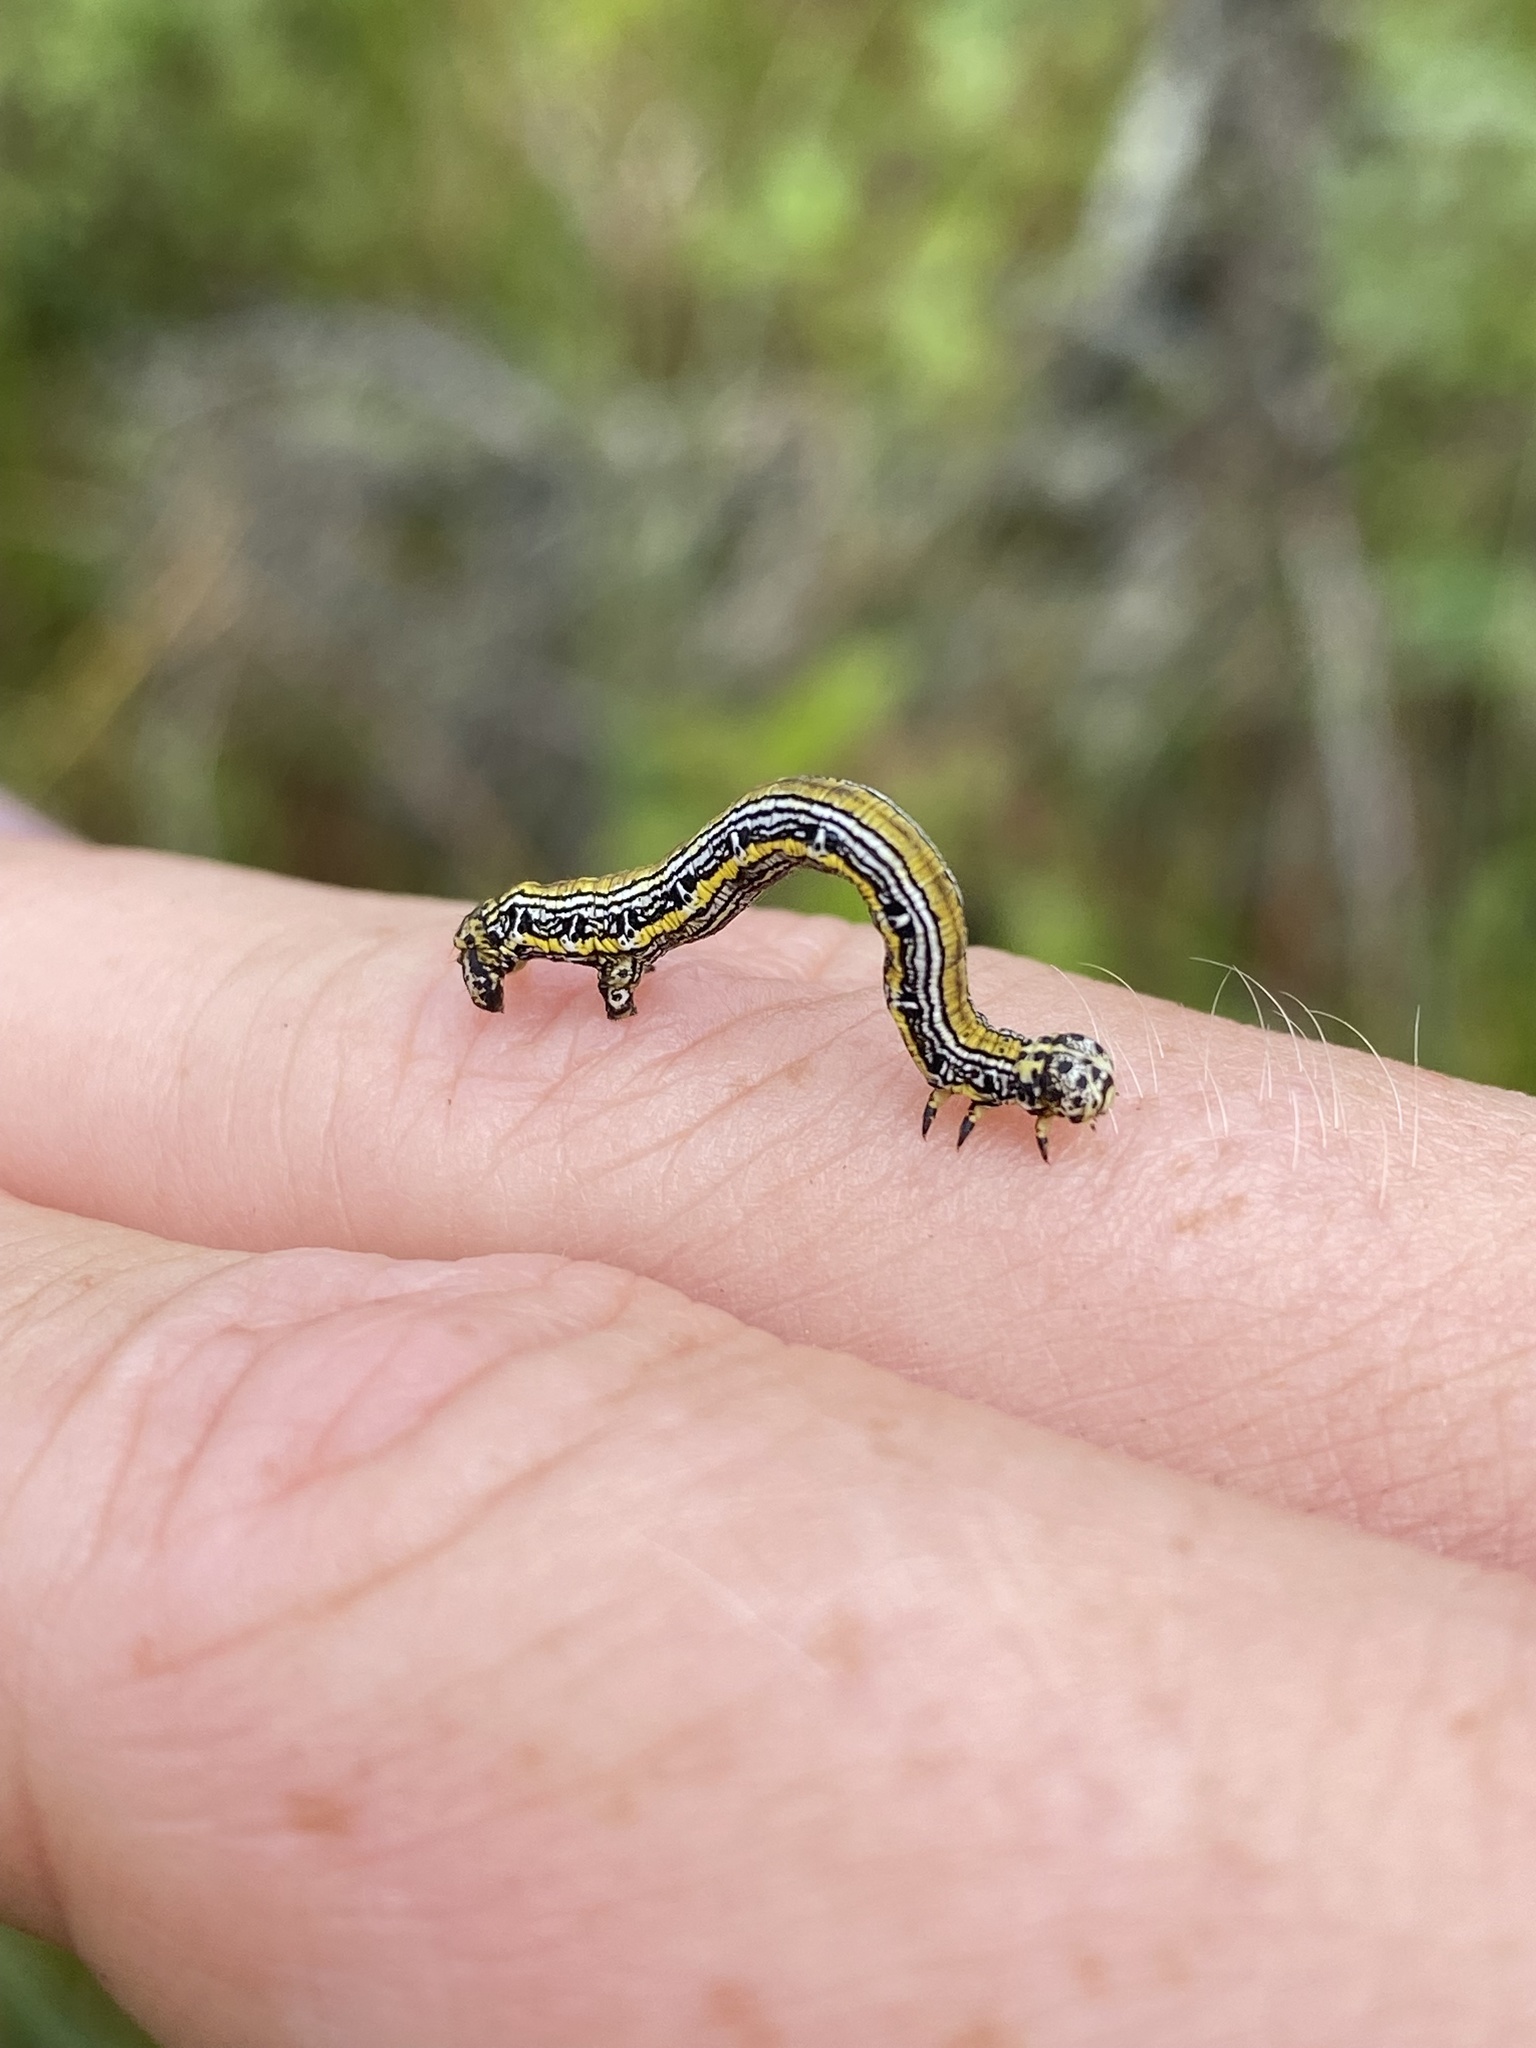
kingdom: Animalia
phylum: Arthropoda
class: Insecta
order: Lepidoptera
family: Geometridae
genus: Cingilia
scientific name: Cingilia catenaria
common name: Chain-dotted geometer
